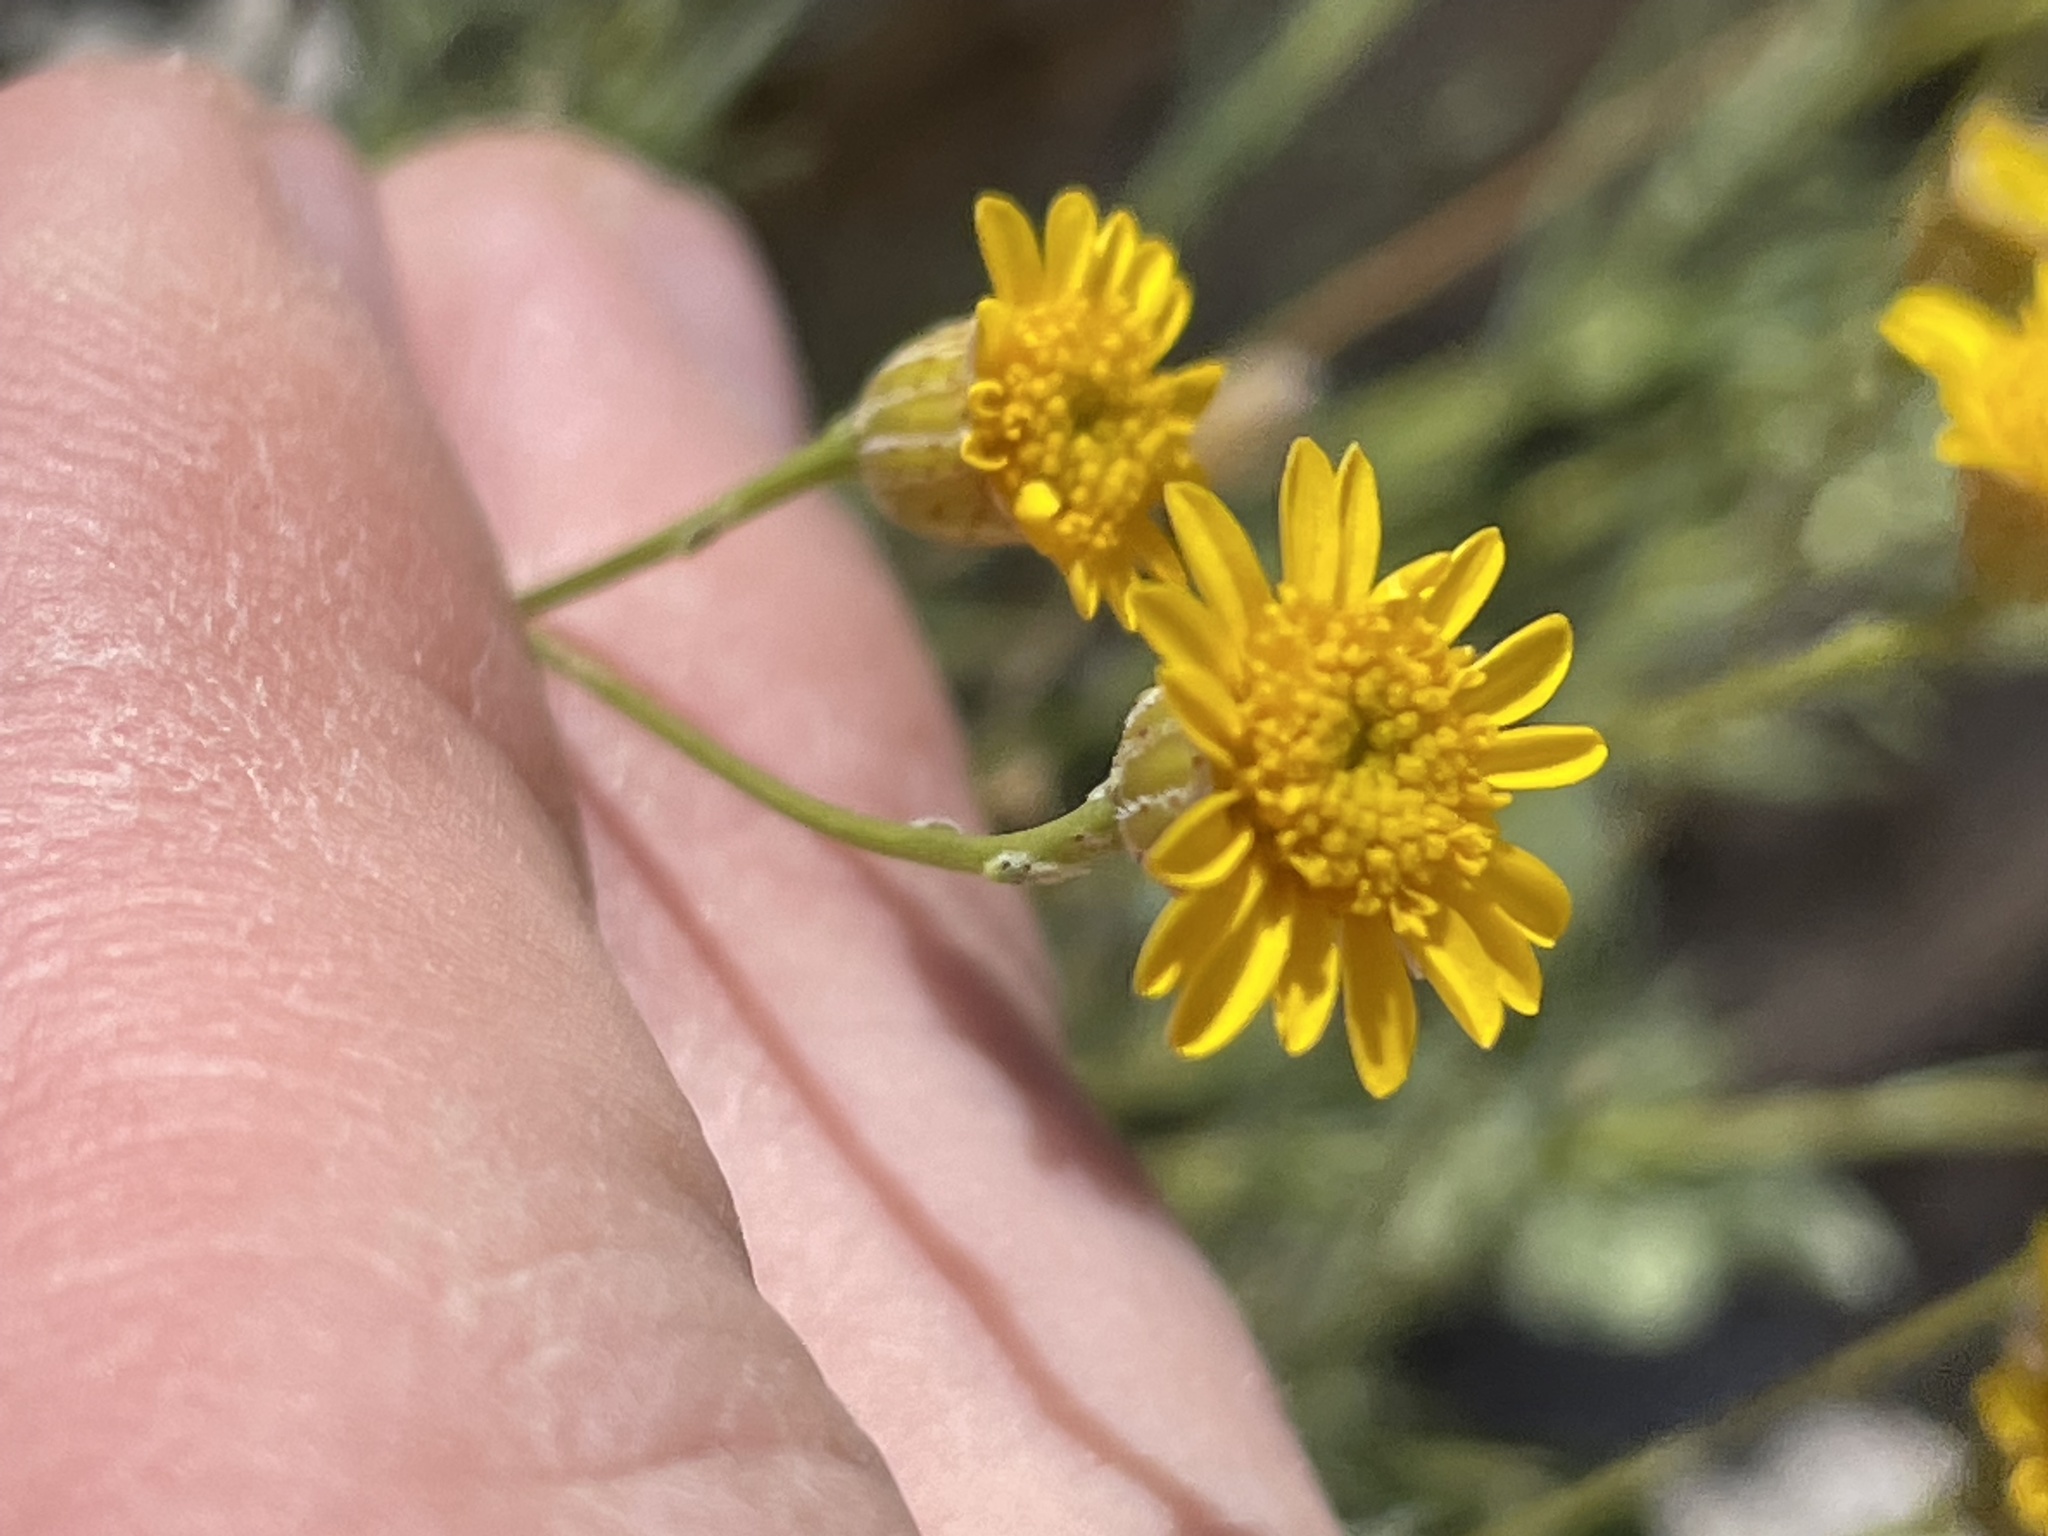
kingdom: Plantae
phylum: Tracheophyta
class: Magnoliopsida
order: Asterales
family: Asteraceae
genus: Thymophylla
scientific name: Thymophylla pentachaeta
